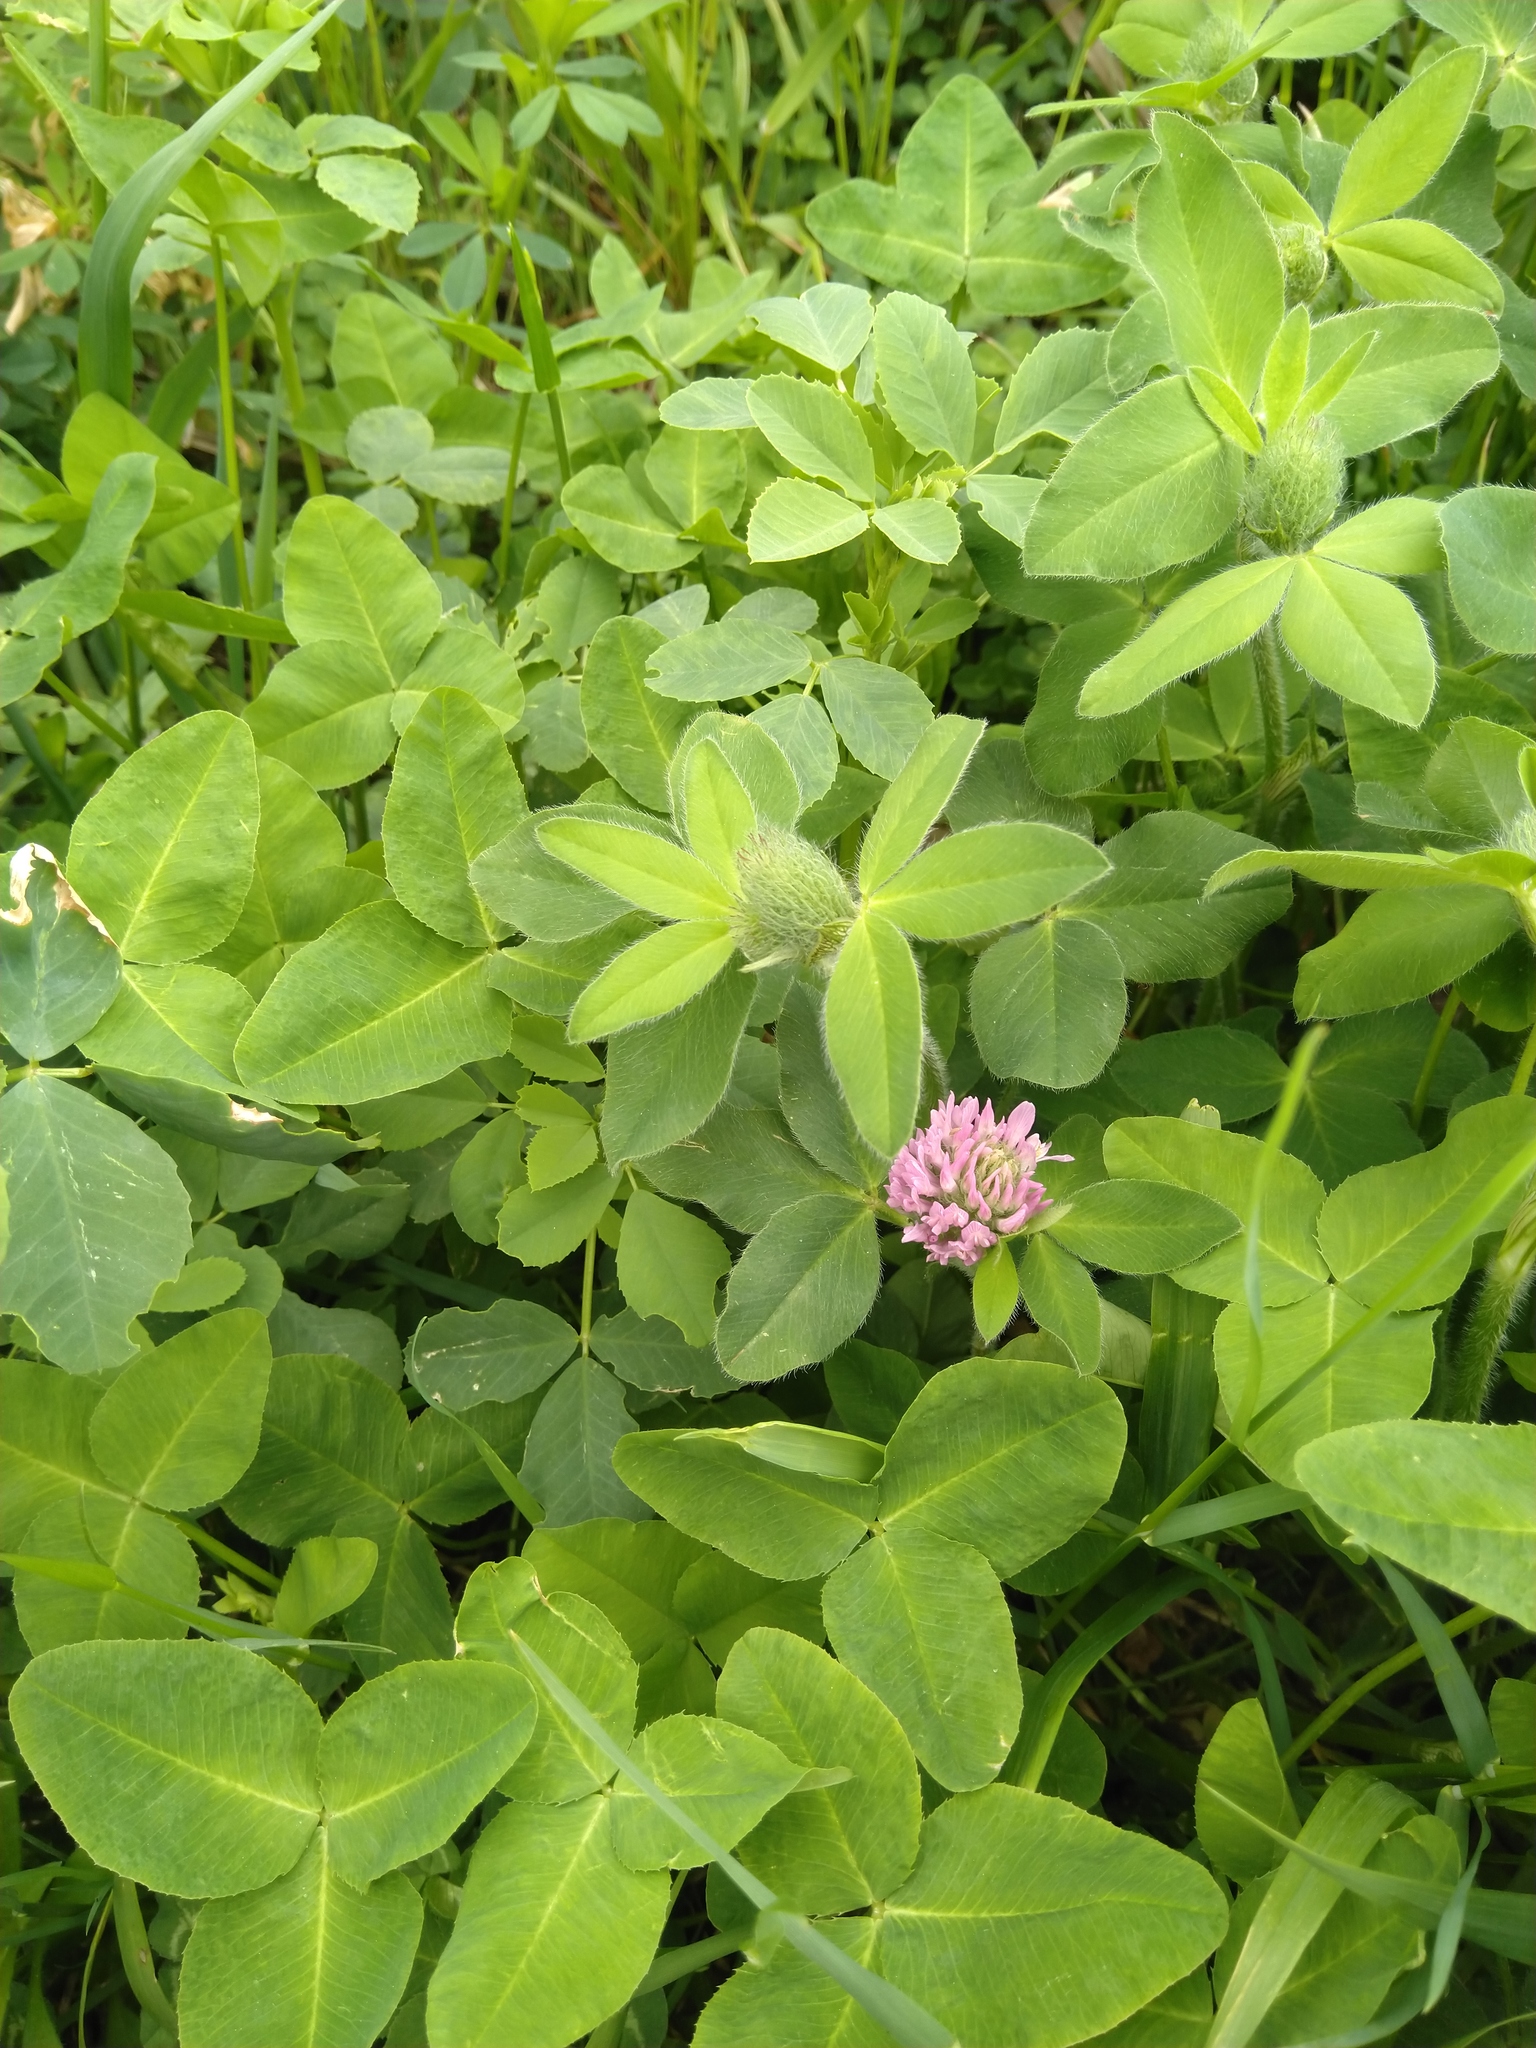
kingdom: Plantae
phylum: Tracheophyta
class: Magnoliopsida
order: Fabales
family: Fabaceae
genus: Trifolium
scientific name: Trifolium pratense
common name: Red clover
